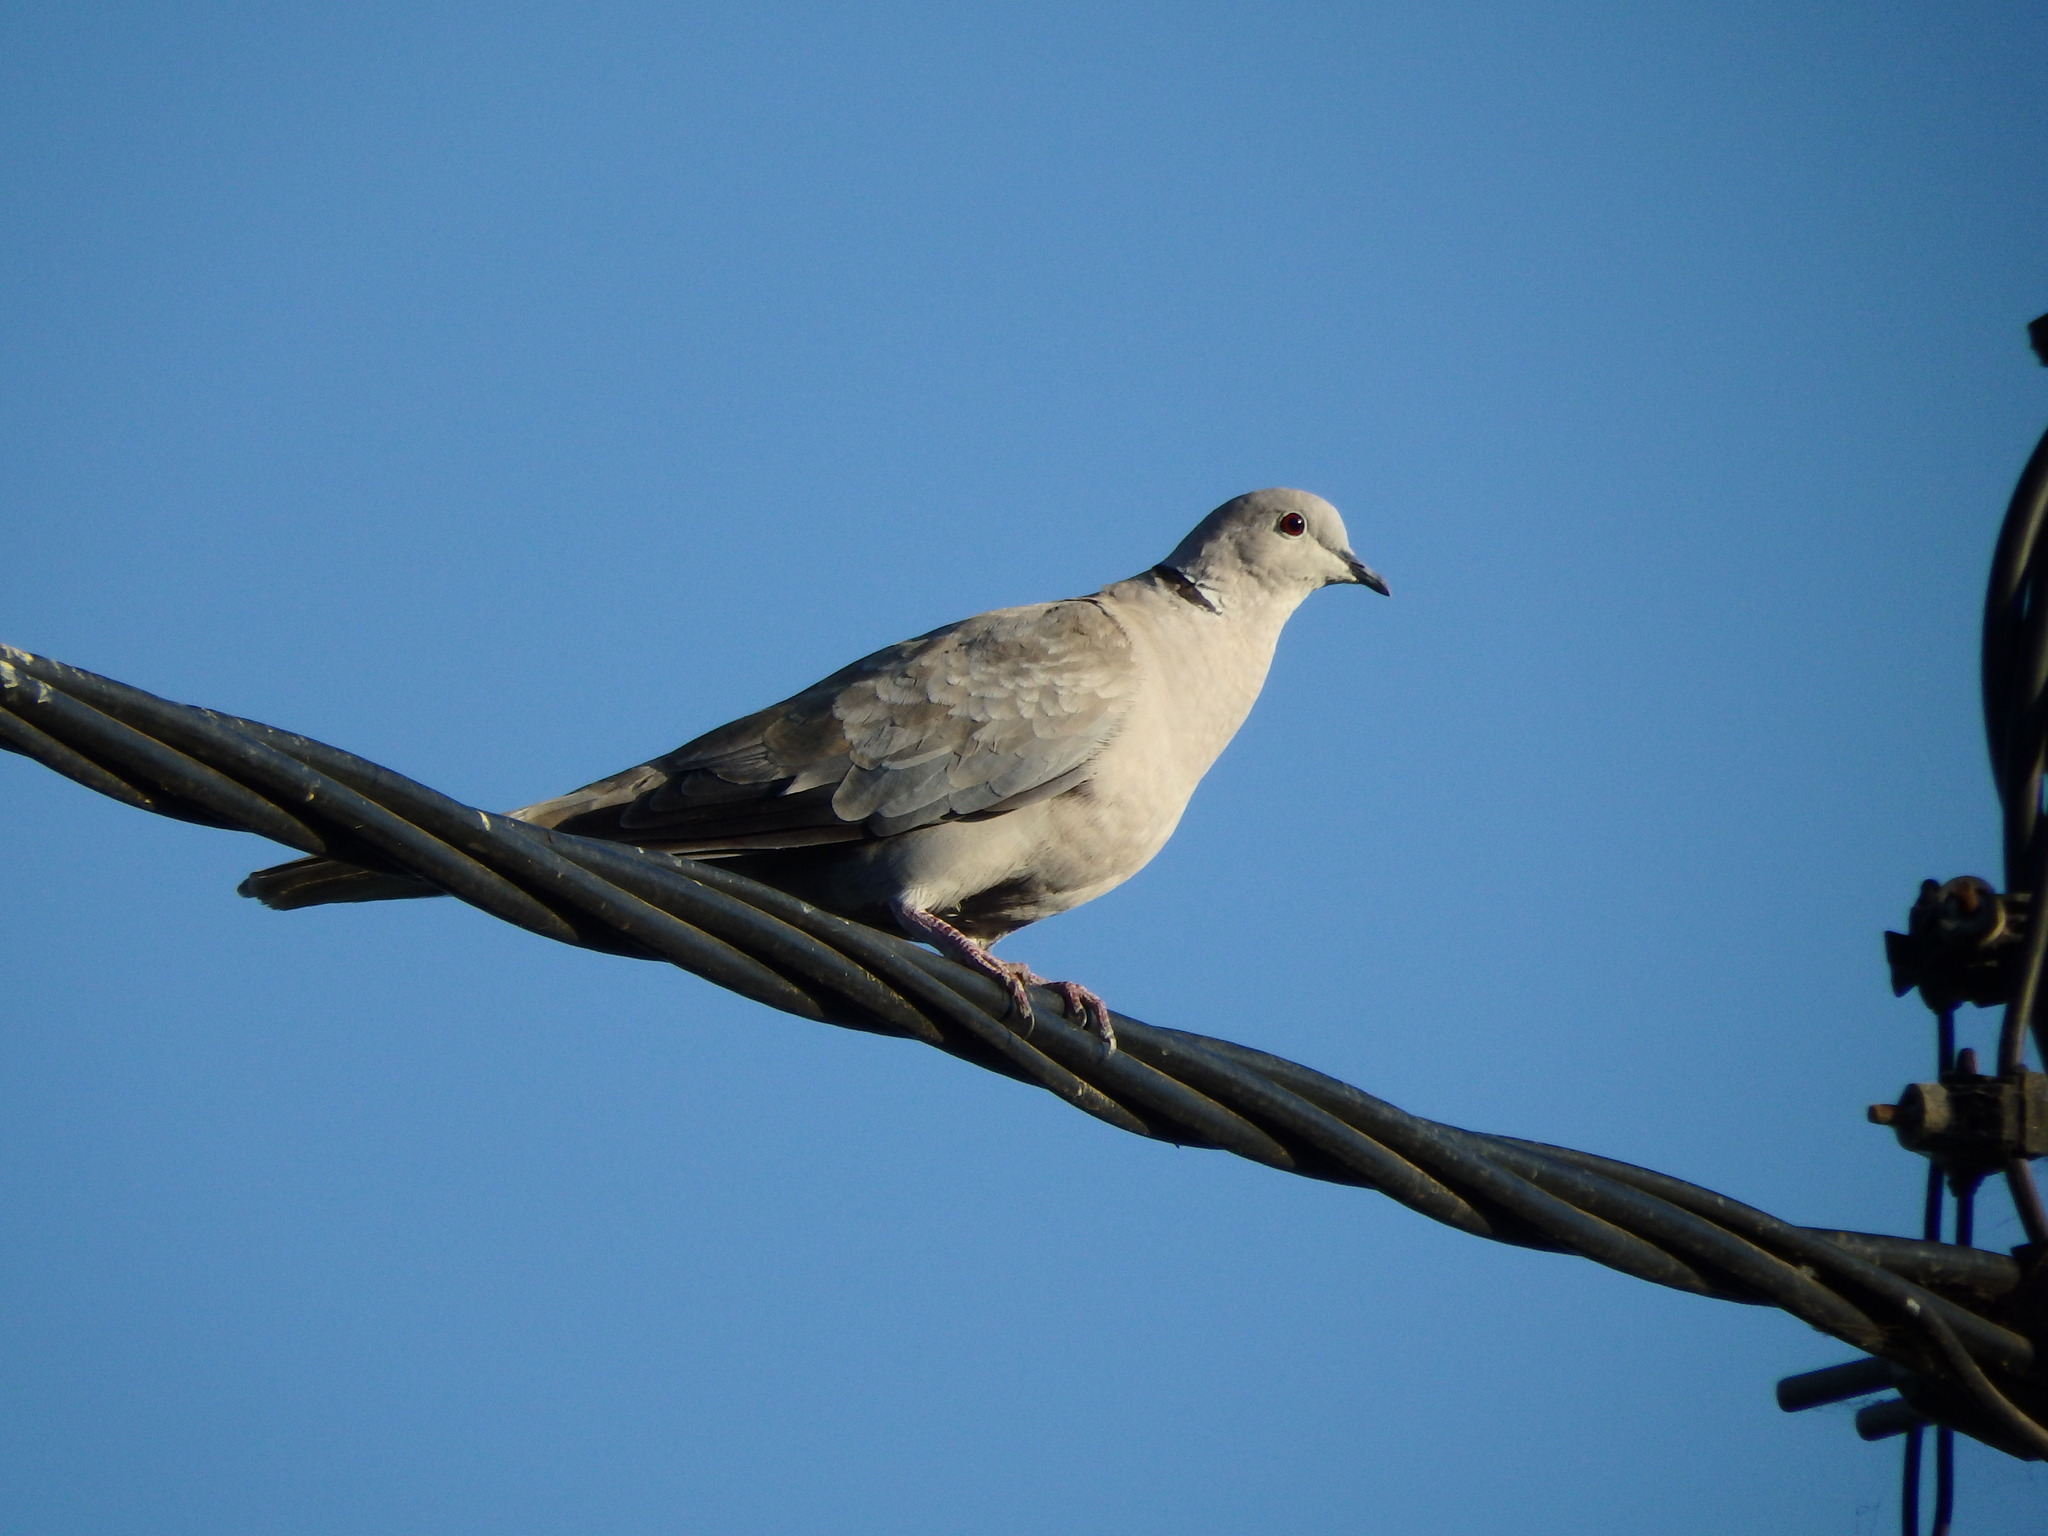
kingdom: Animalia
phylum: Chordata
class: Aves
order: Columbiformes
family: Columbidae
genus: Streptopelia
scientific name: Streptopelia decaocto
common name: Eurasian collared dove
